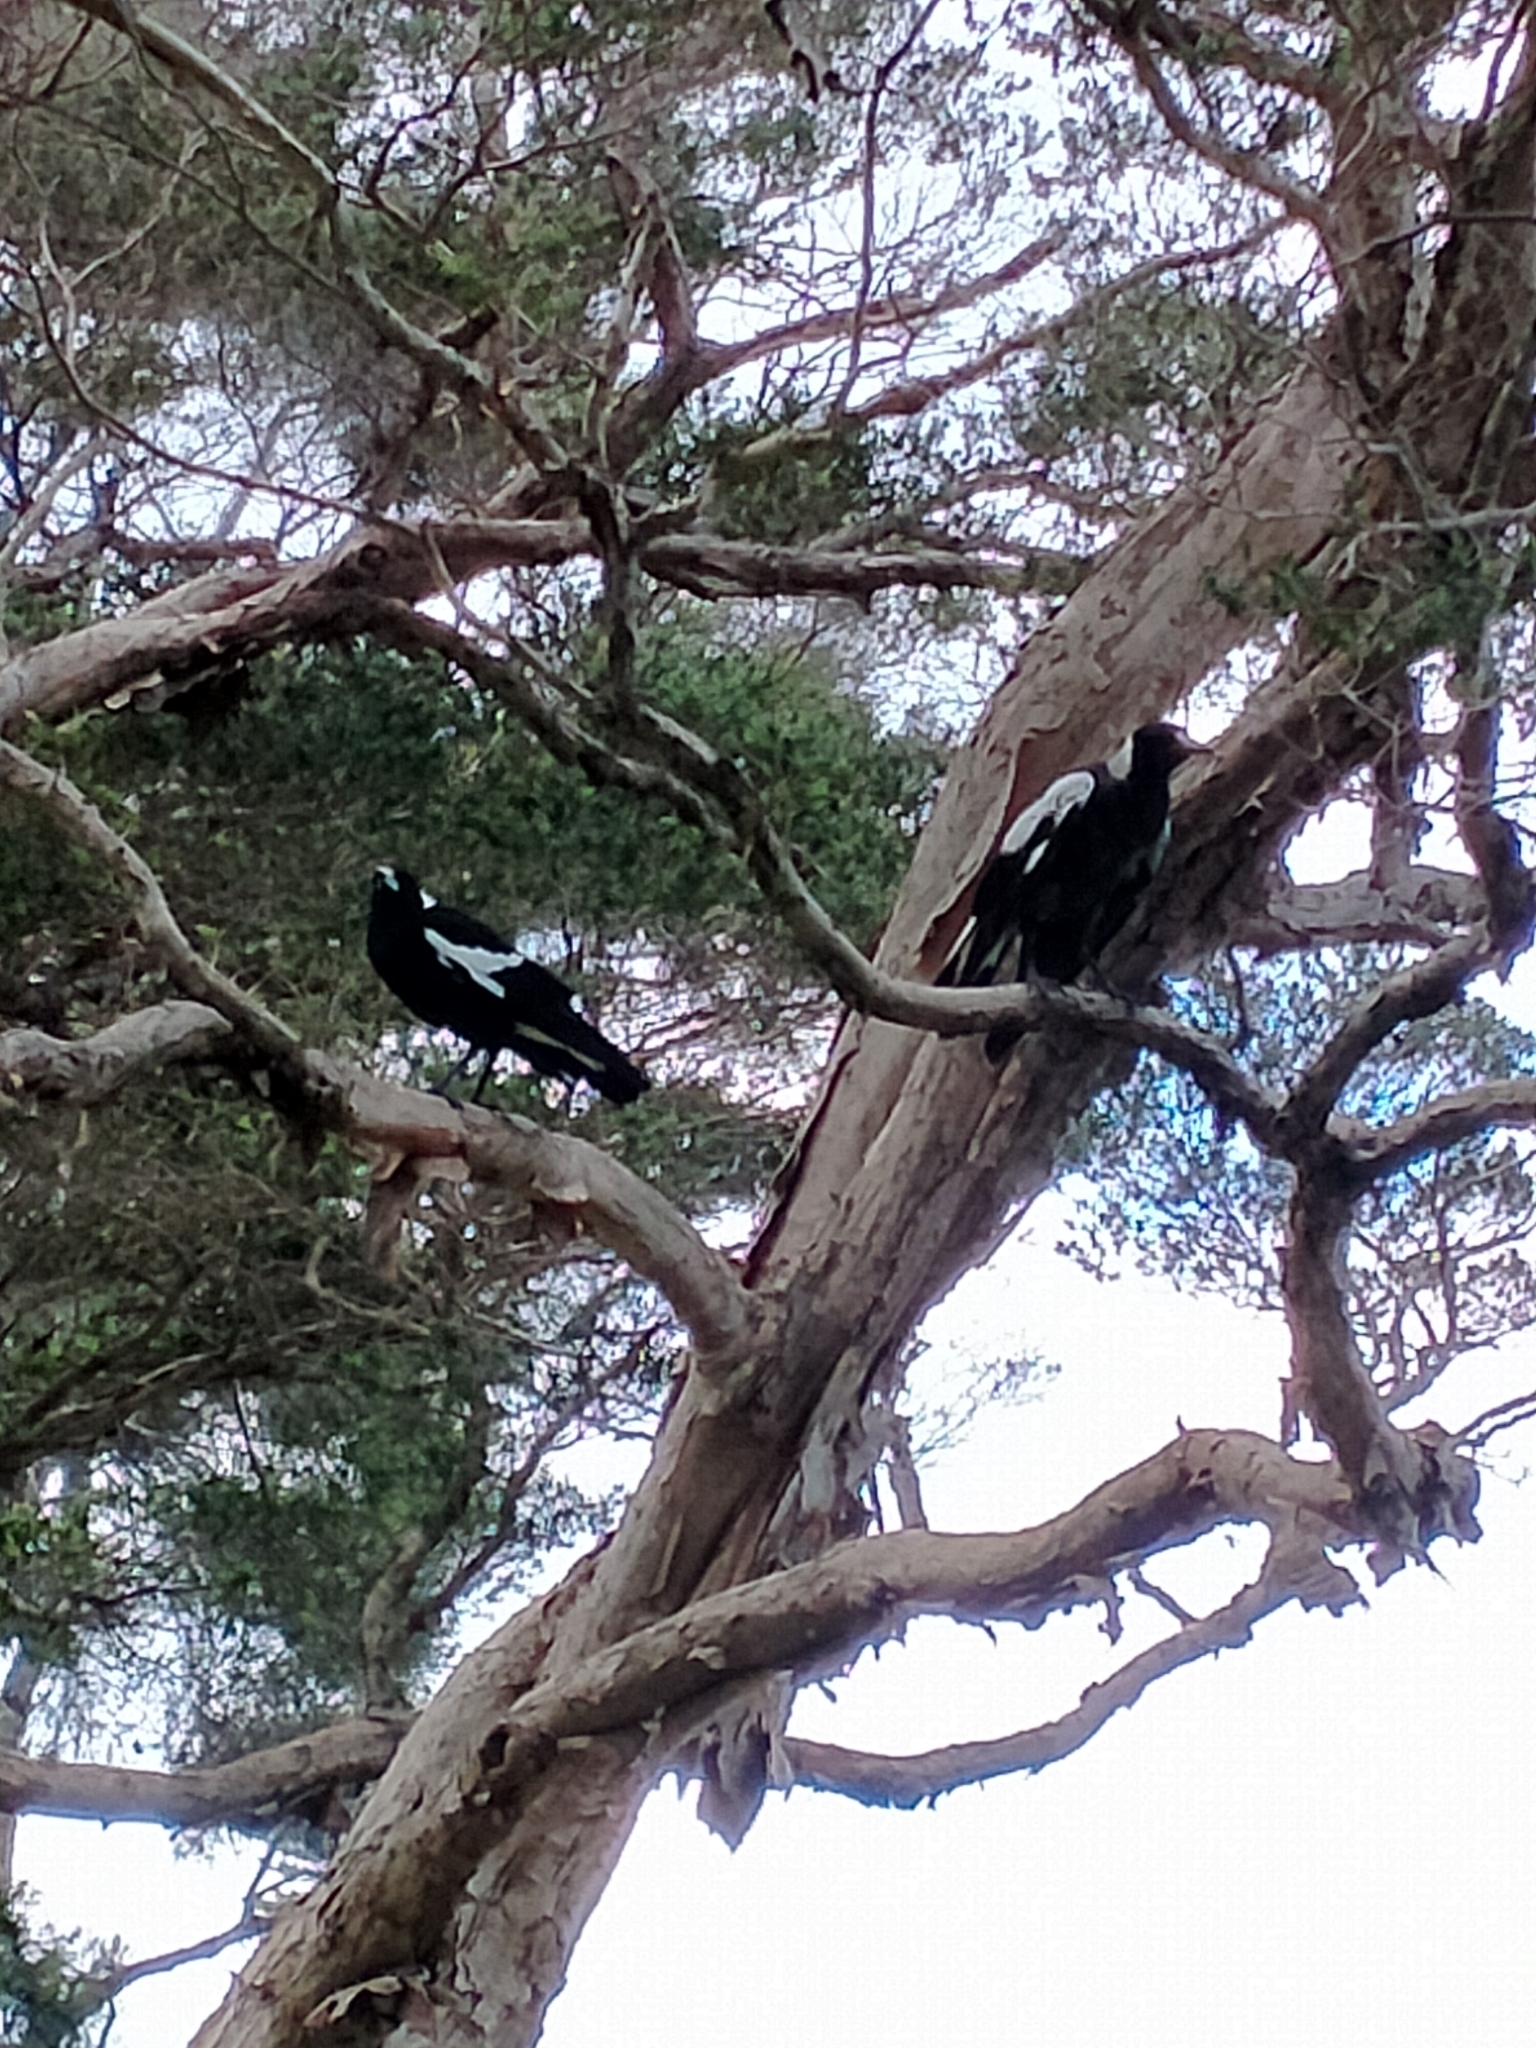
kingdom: Animalia
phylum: Chordata
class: Aves
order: Passeriformes
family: Cracticidae
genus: Gymnorhina
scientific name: Gymnorhina tibicen
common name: Australian magpie
